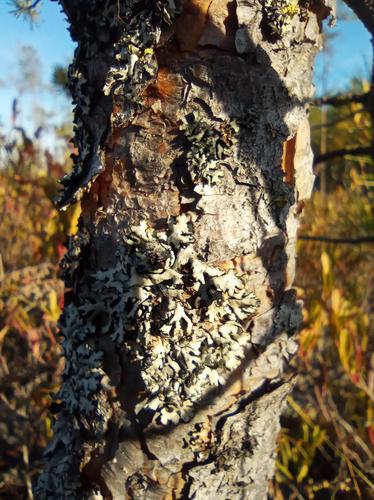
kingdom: Fungi
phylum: Ascomycota
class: Lecanoromycetes
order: Lecanorales
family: Parmeliaceae
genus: Hypogymnia
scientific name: Hypogymnia physodes
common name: Dark crottle
